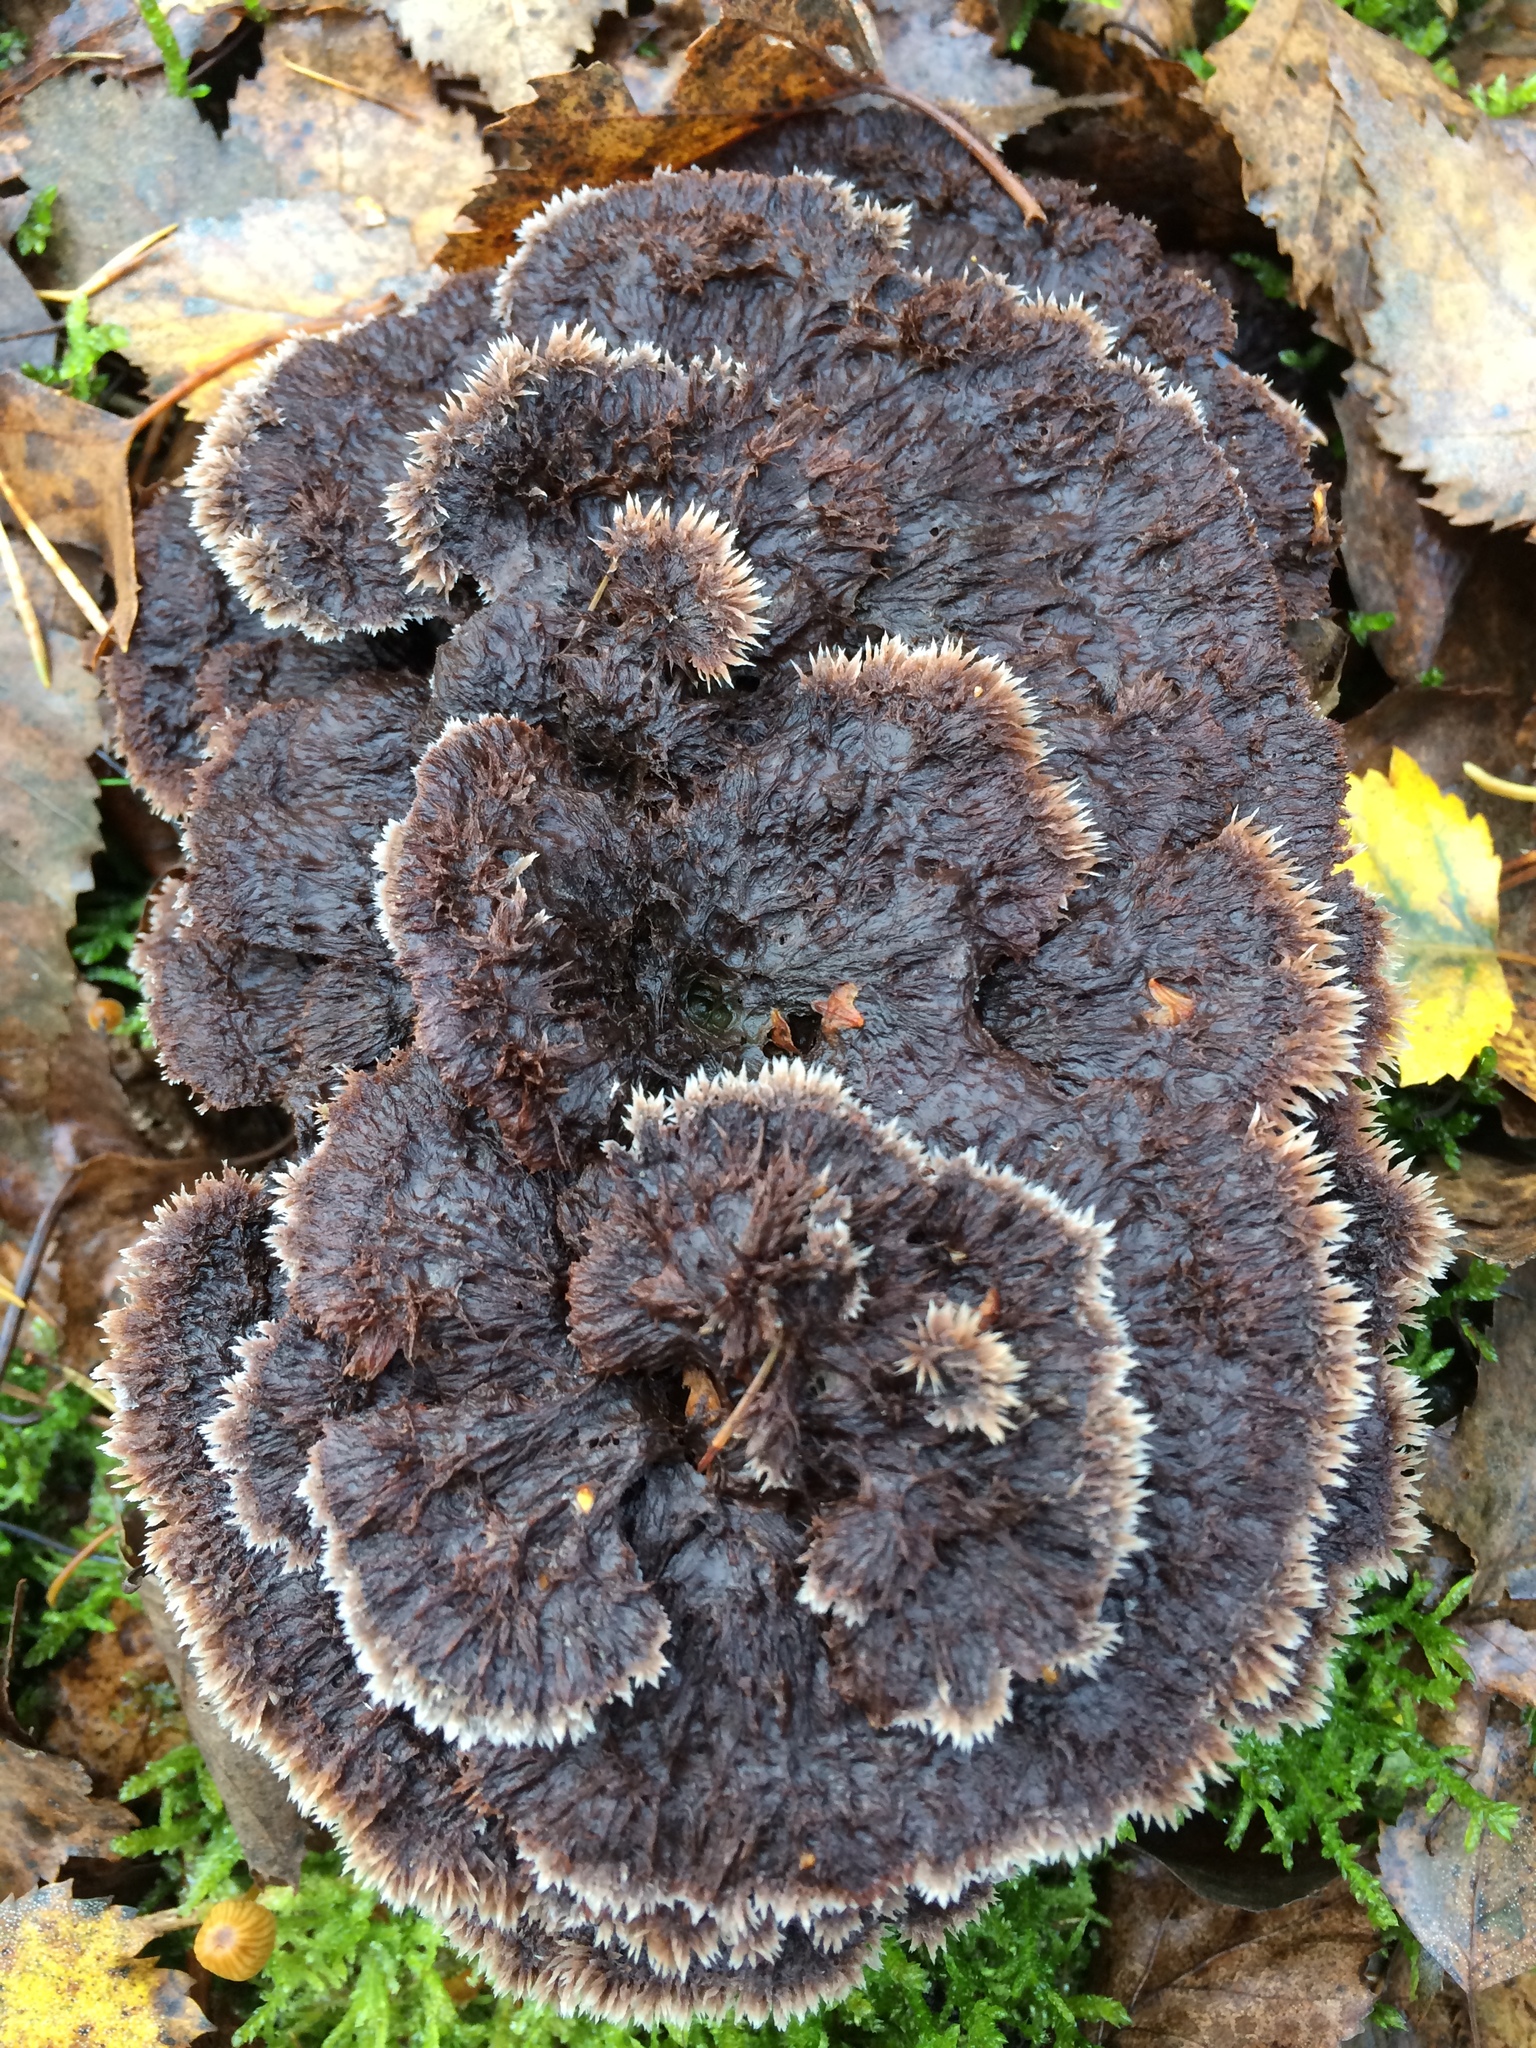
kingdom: Fungi
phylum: Basidiomycota
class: Agaricomycetes
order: Thelephorales
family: Thelephoraceae
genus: Thelephora
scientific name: Thelephora terrestris
